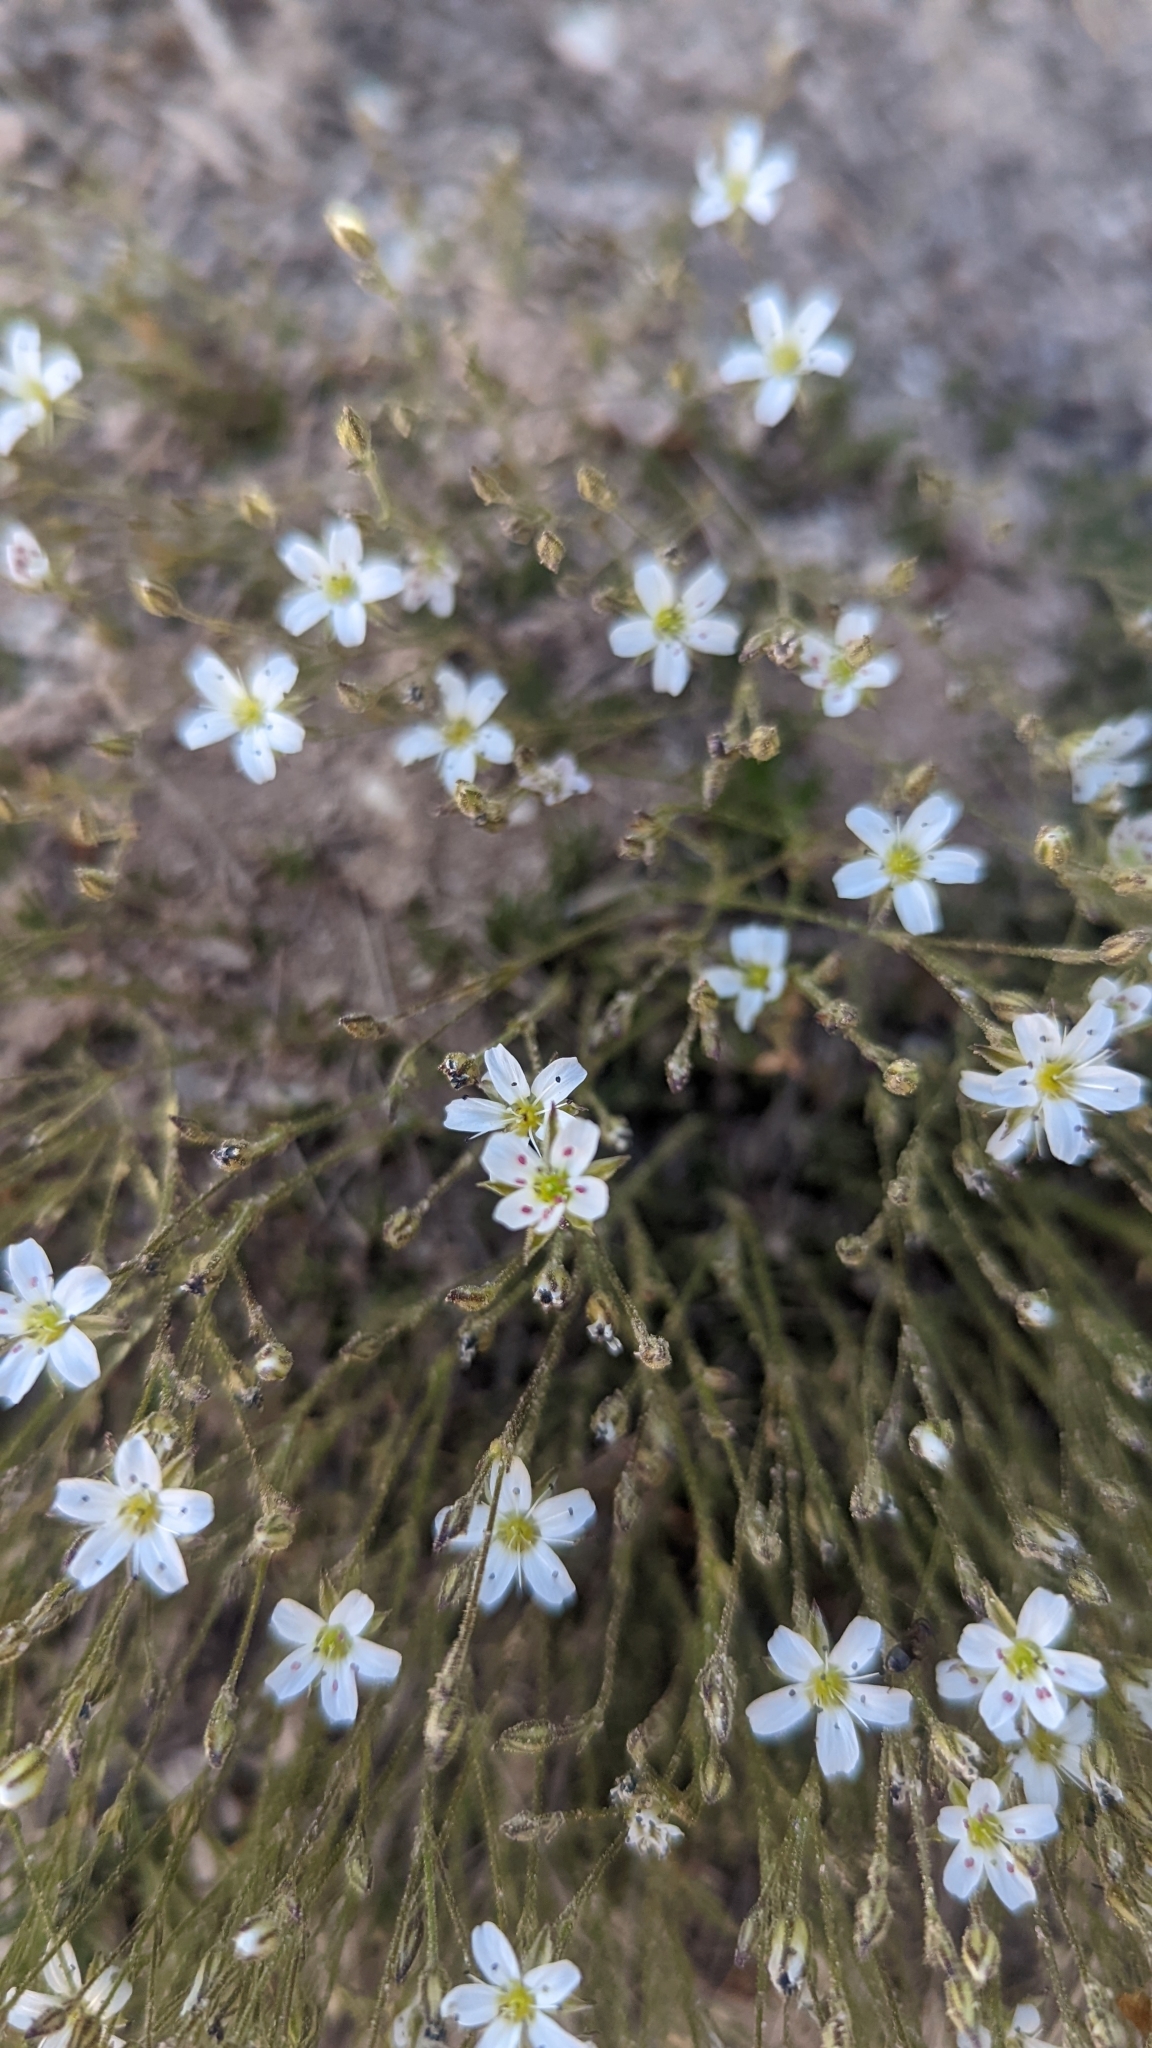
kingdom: Plantae
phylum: Tracheophyta
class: Magnoliopsida
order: Caryophyllales
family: Caryophyllaceae
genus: Eremogone
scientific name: Eremogone fendleri
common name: Fendler's sandwort
